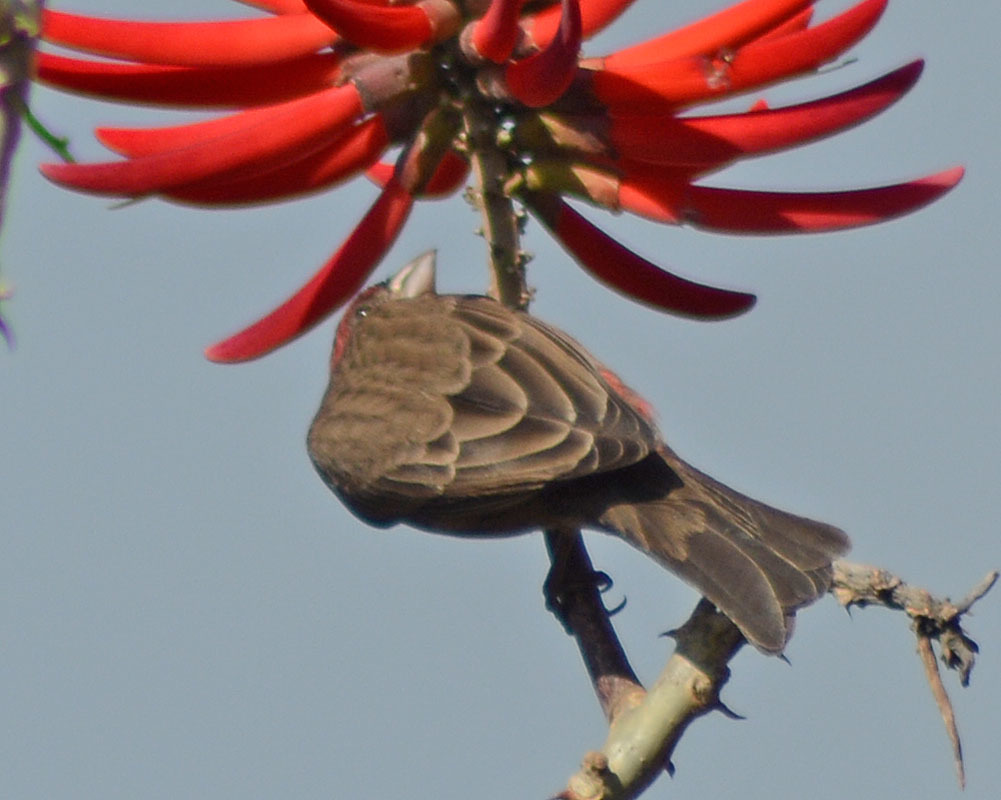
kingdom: Animalia
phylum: Chordata
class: Aves
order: Passeriformes
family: Fringillidae
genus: Haemorhous
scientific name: Haemorhous mexicanus
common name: House finch
